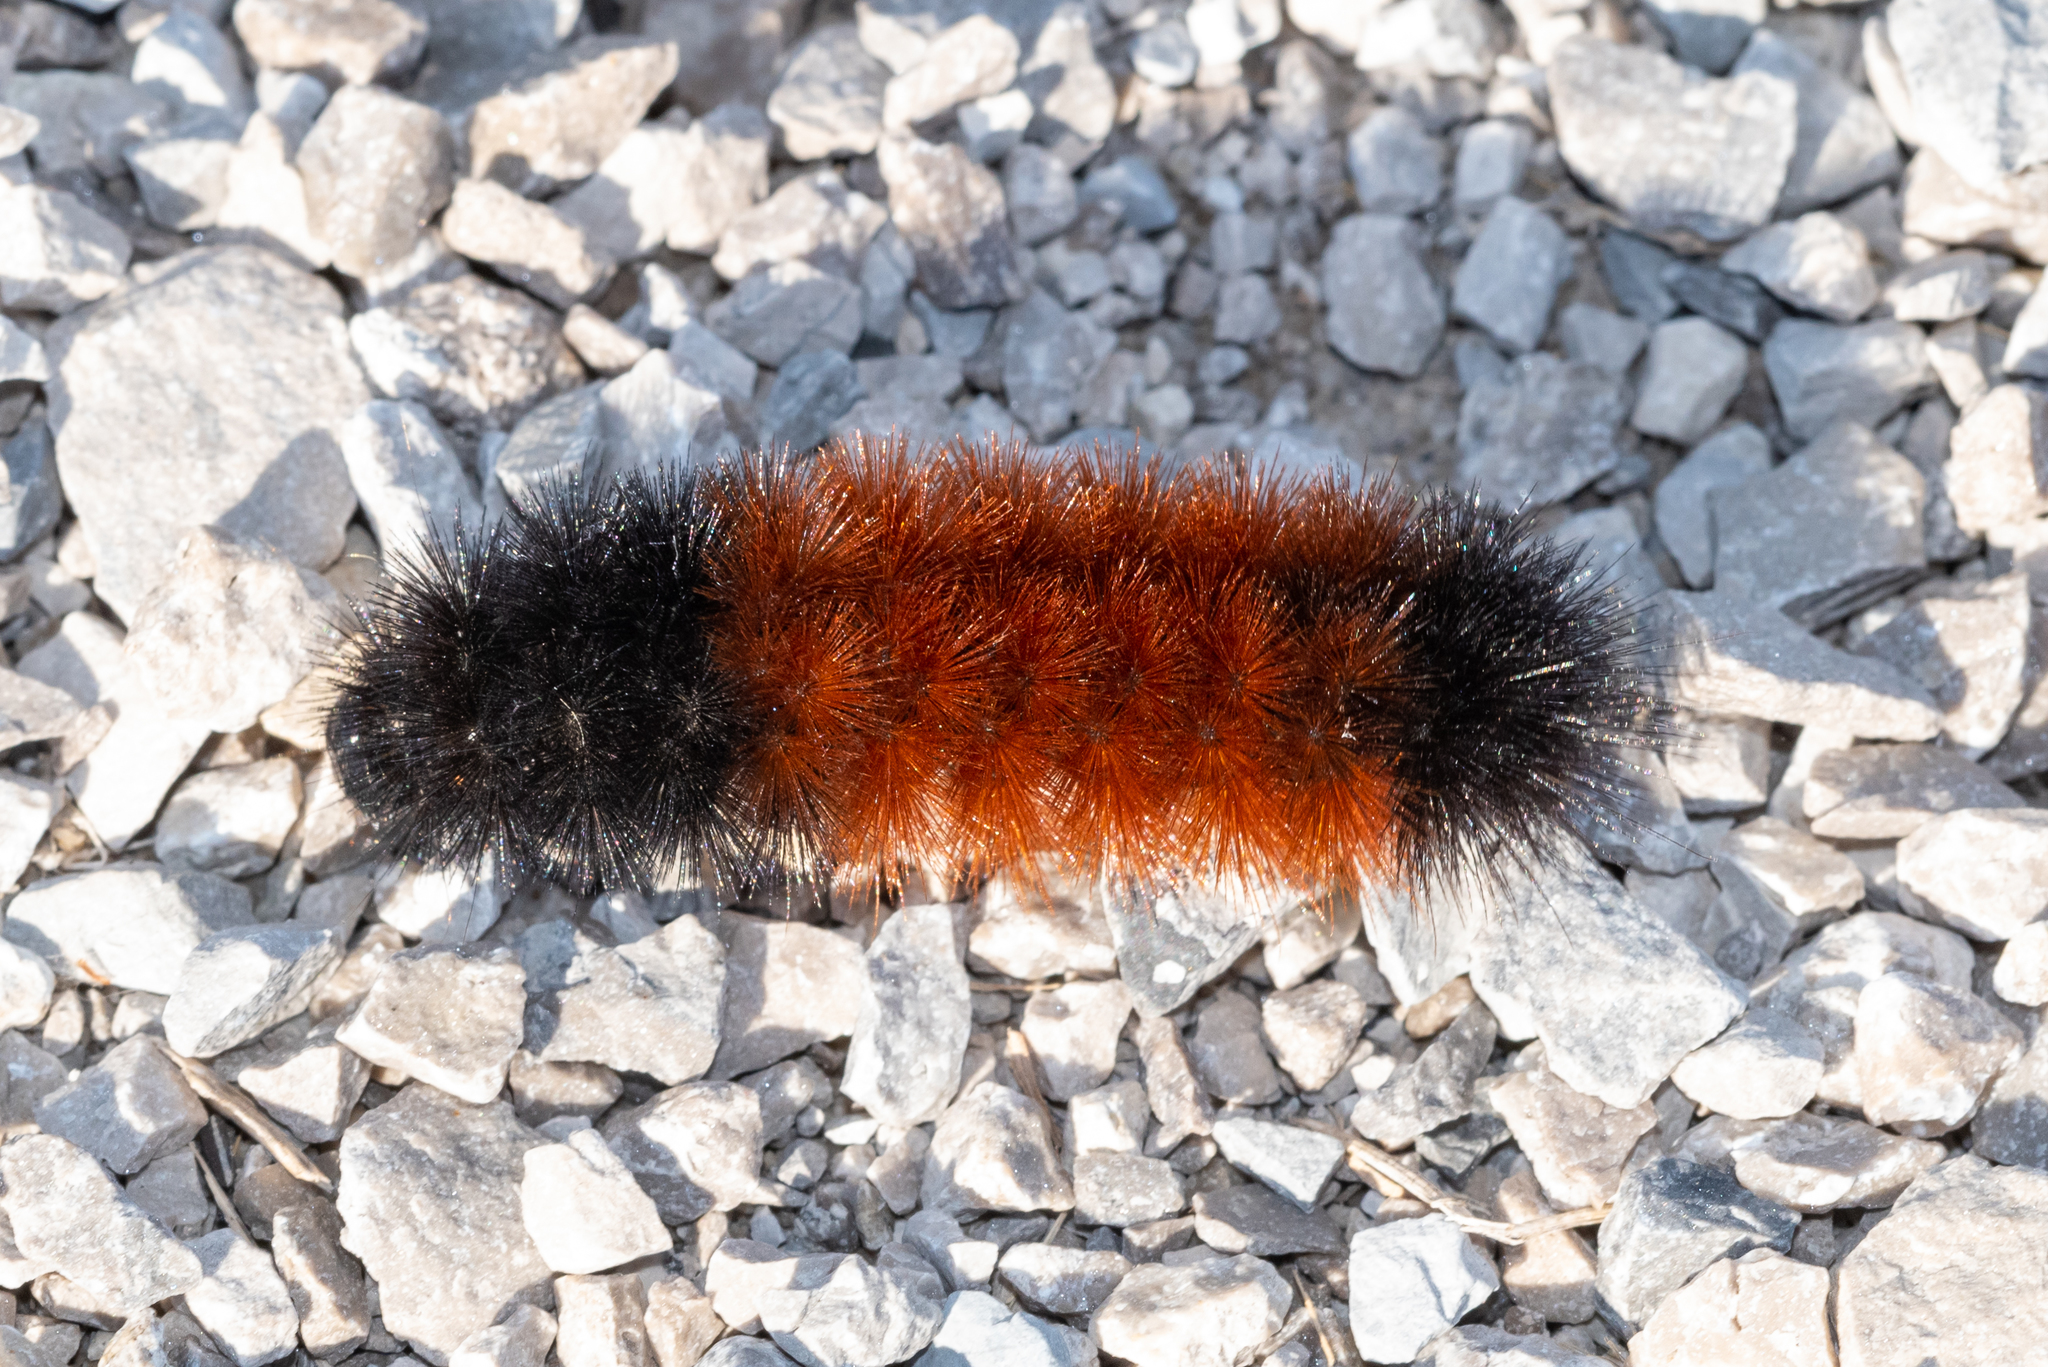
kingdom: Animalia
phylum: Arthropoda
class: Insecta
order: Lepidoptera
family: Erebidae
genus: Pyrrharctia
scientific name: Pyrrharctia isabella
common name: Isabella tiger moth
